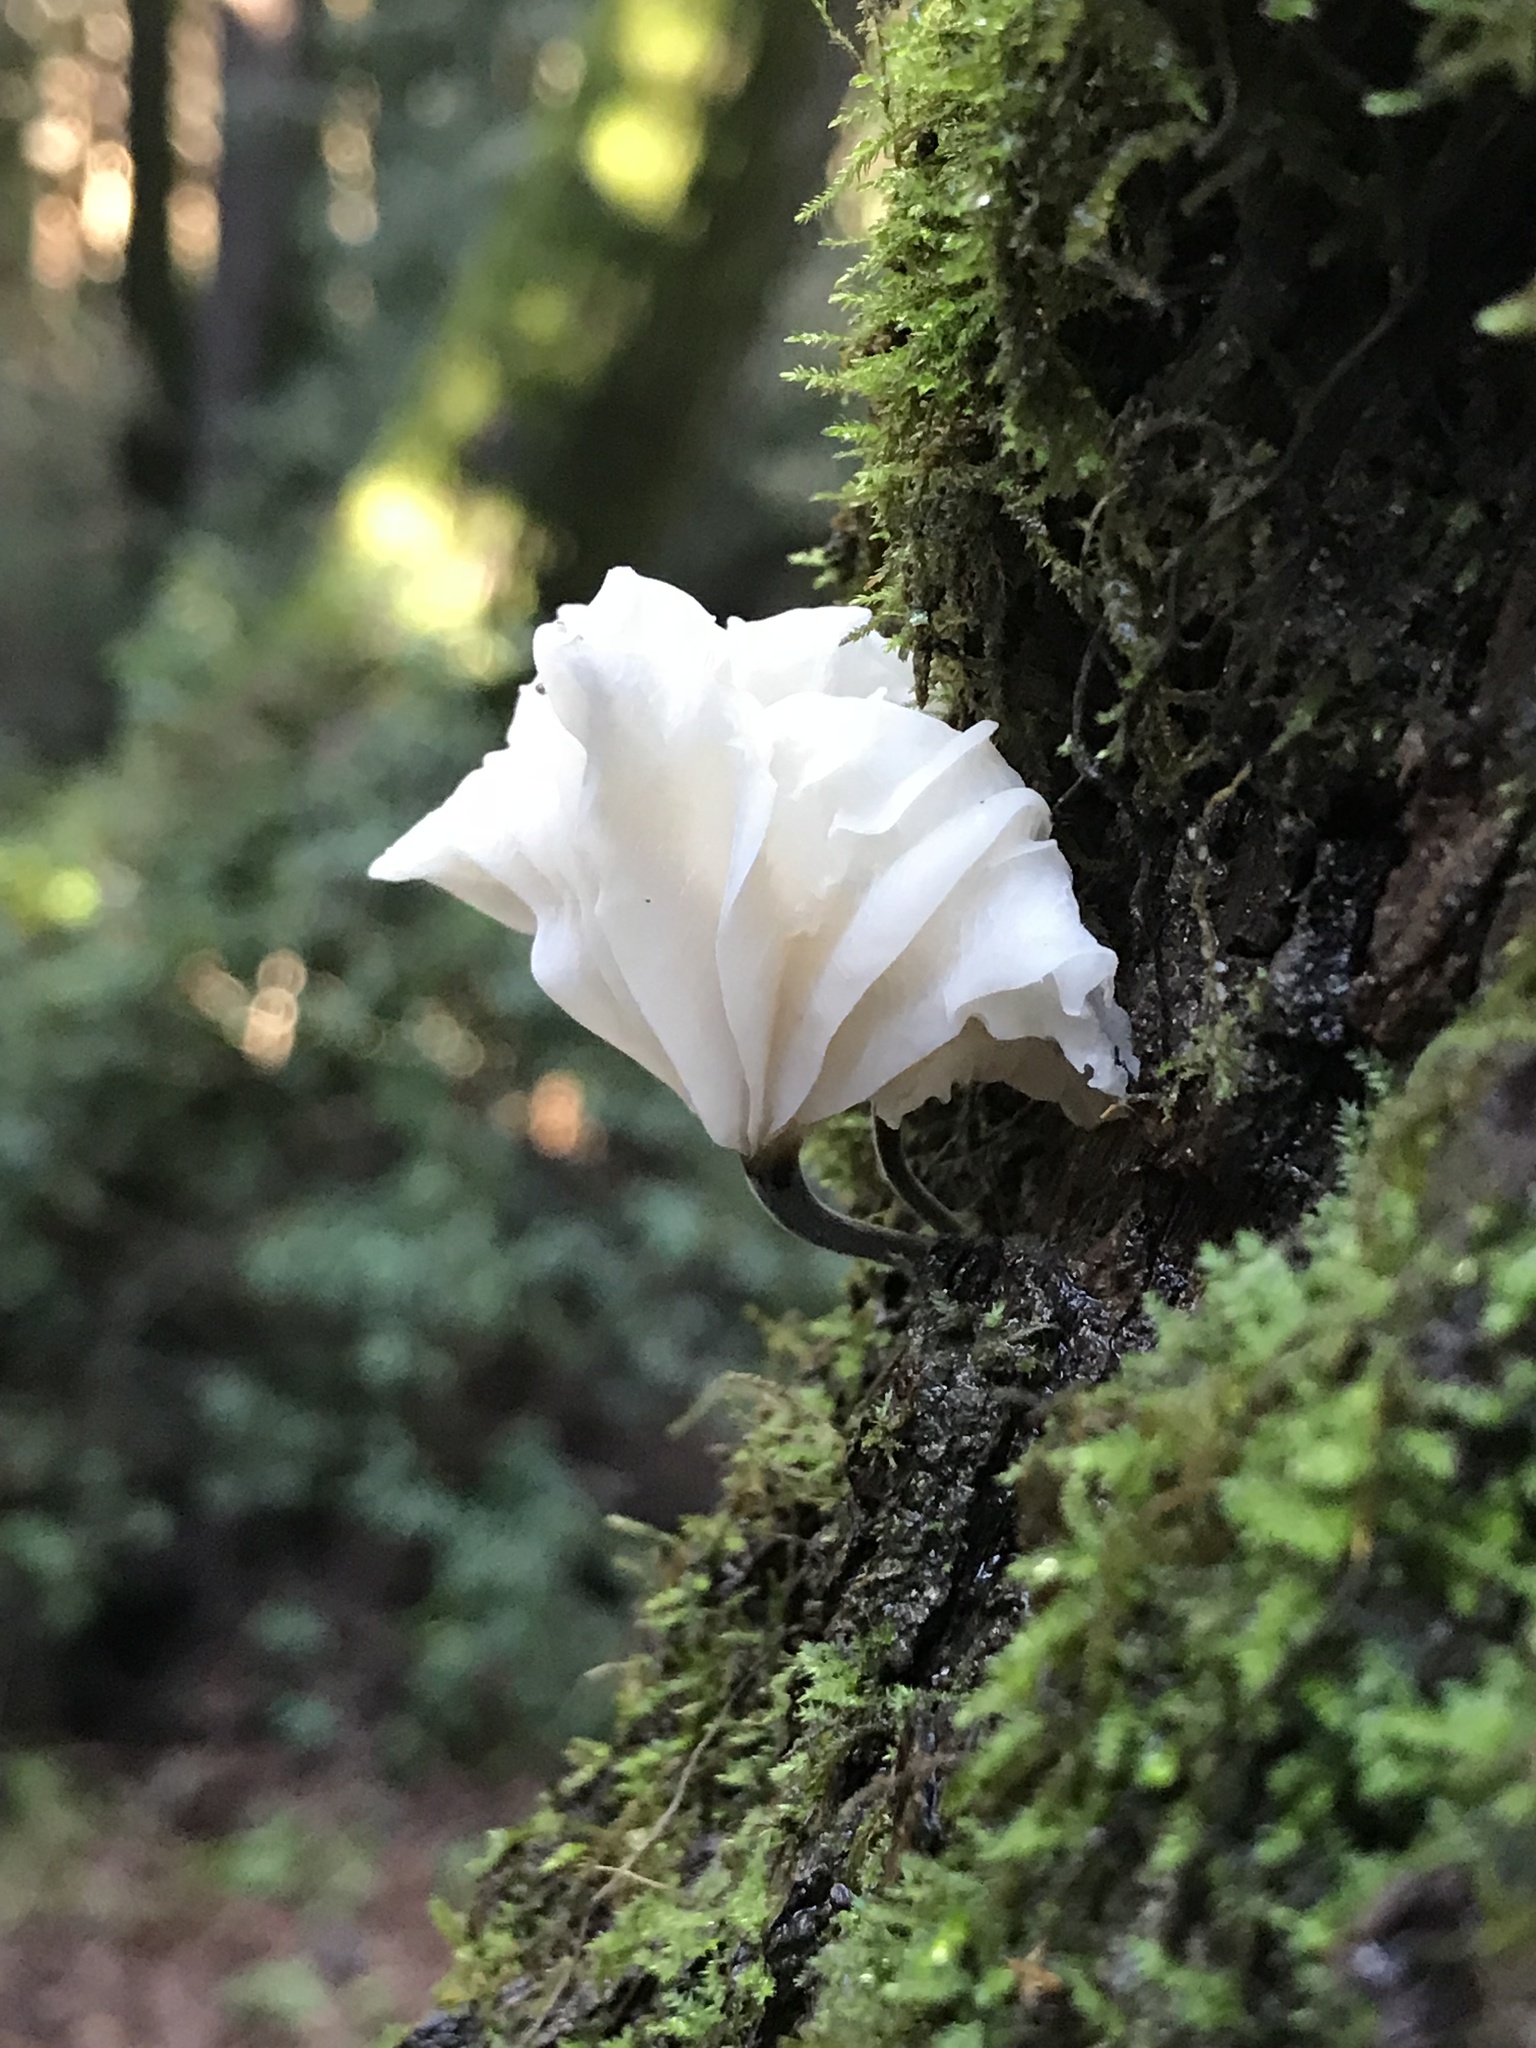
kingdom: Fungi
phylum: Basidiomycota
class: Agaricomycetes
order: Agaricales
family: Omphalotaceae
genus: Marasmiellus
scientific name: Marasmiellus candidus
